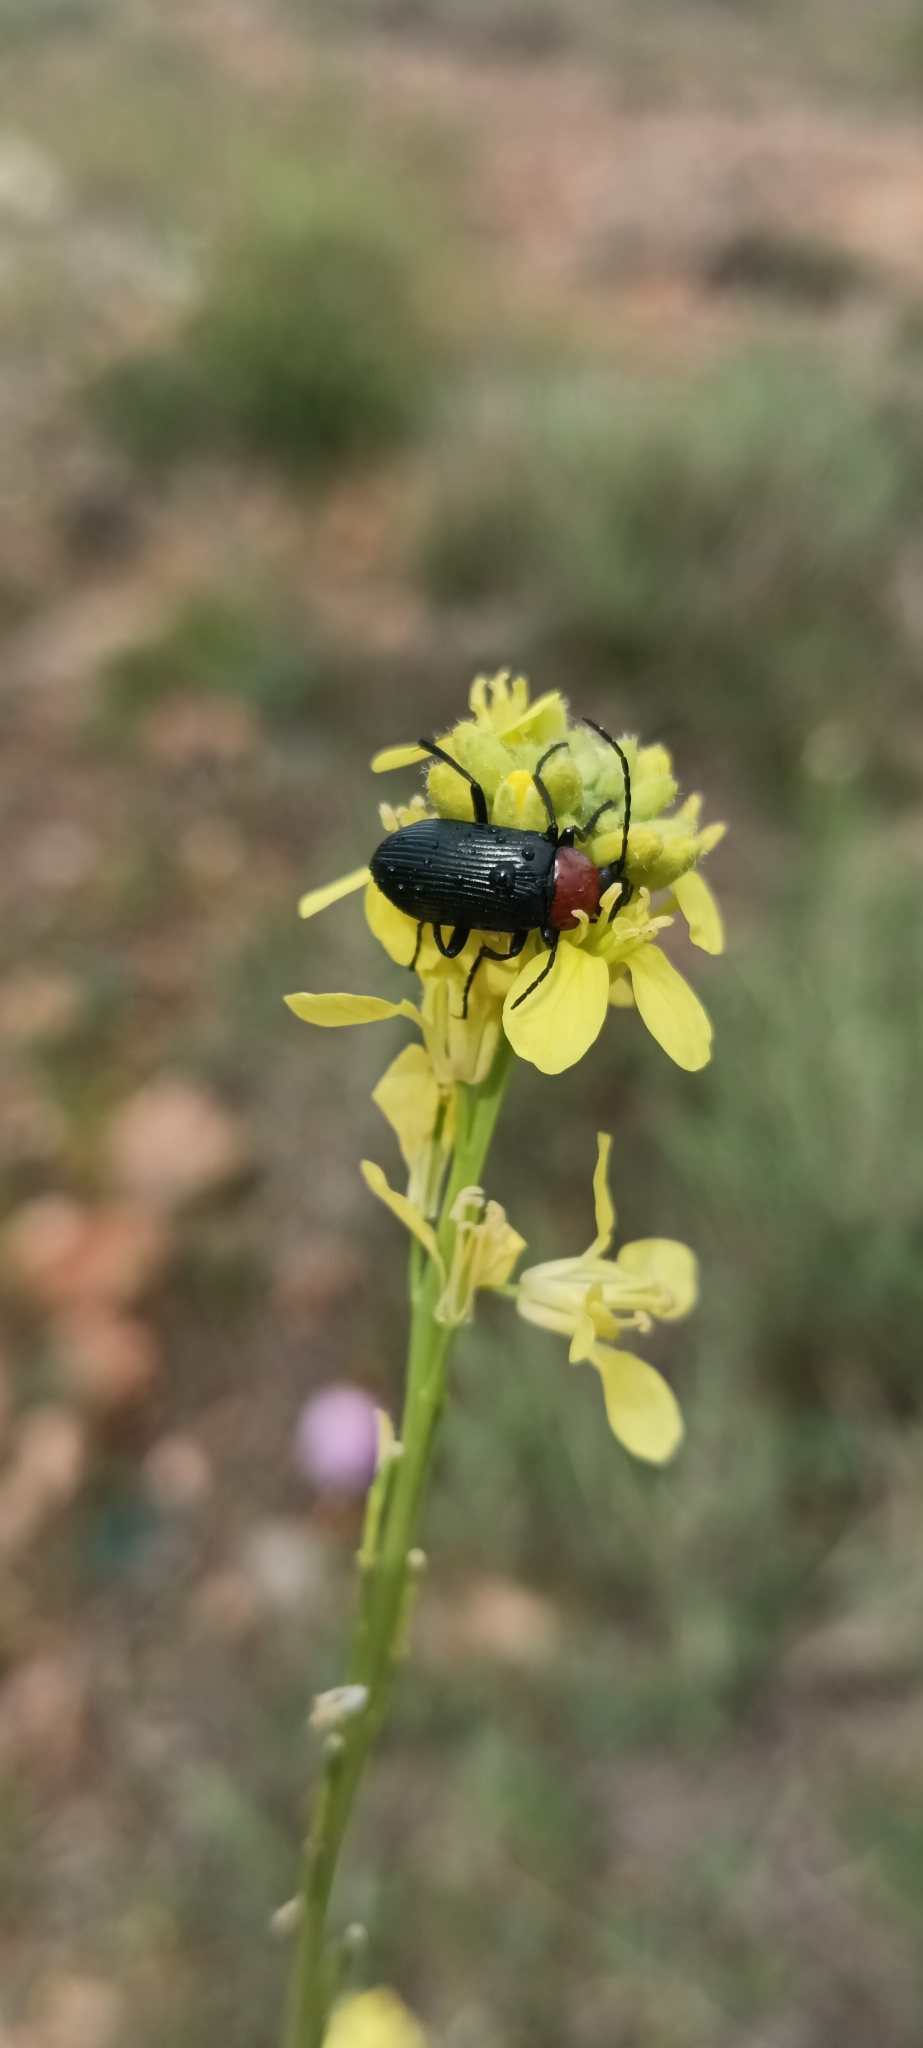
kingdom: Animalia
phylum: Arthropoda
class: Insecta
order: Coleoptera
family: Tenebrionidae
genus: Heliotaurus
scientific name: Heliotaurus ruficollis
